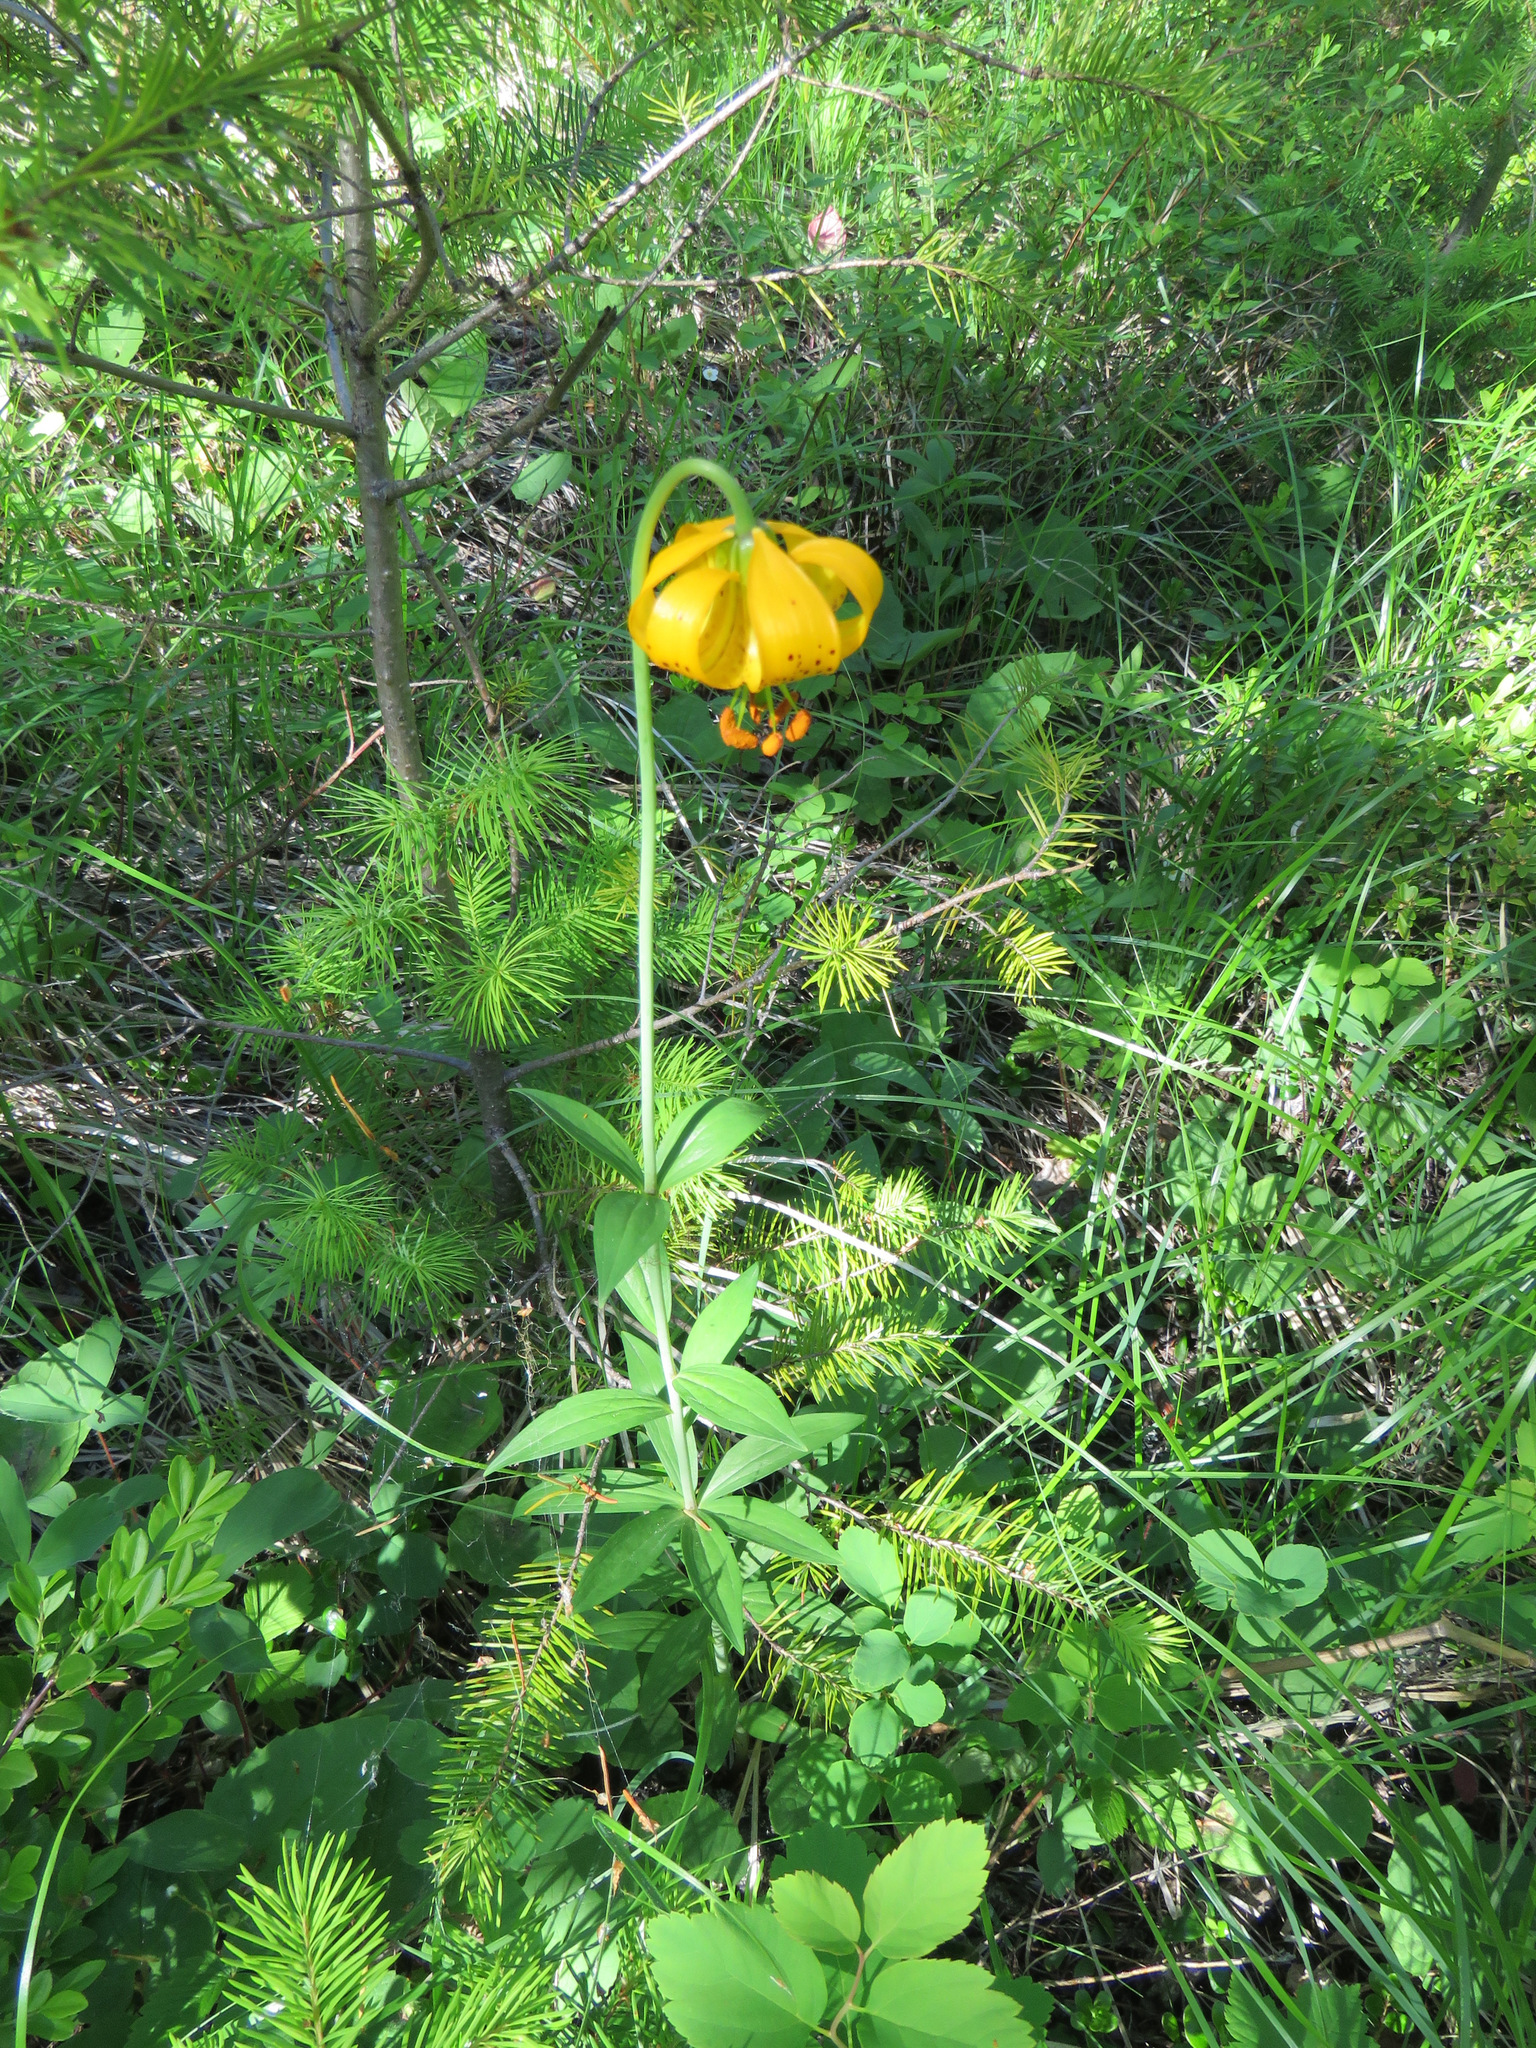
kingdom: Plantae
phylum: Tracheophyta
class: Liliopsida
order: Liliales
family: Liliaceae
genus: Lilium
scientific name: Lilium columbianum
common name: Columbia lily
